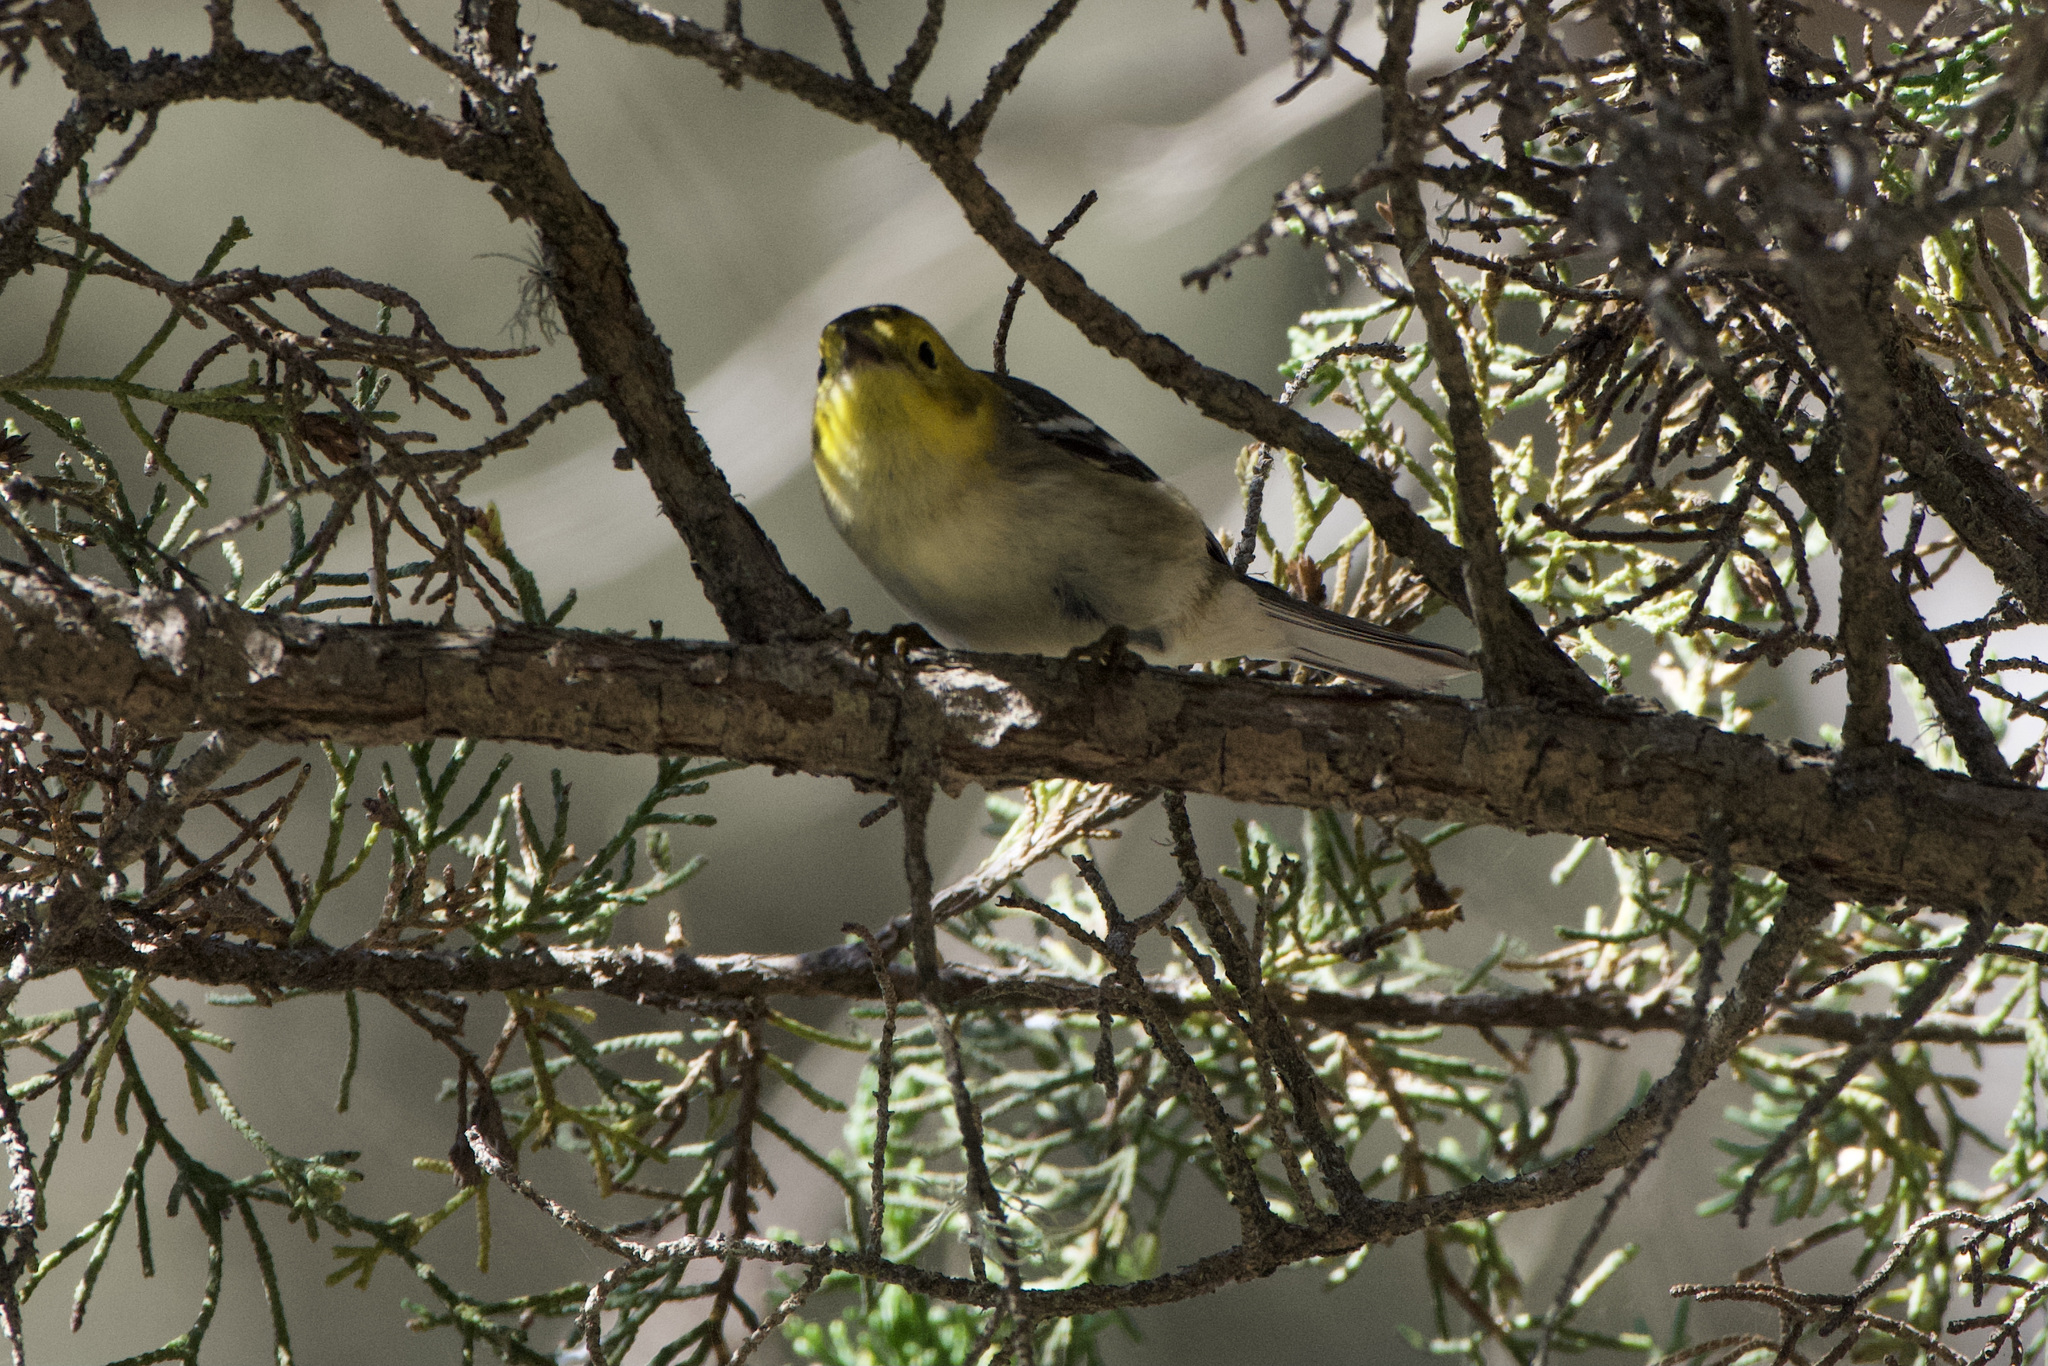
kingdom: Animalia
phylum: Chordata
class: Aves
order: Passeriformes
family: Parulidae
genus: Setophaga
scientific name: Setophaga occidentalis
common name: Hermit warbler
